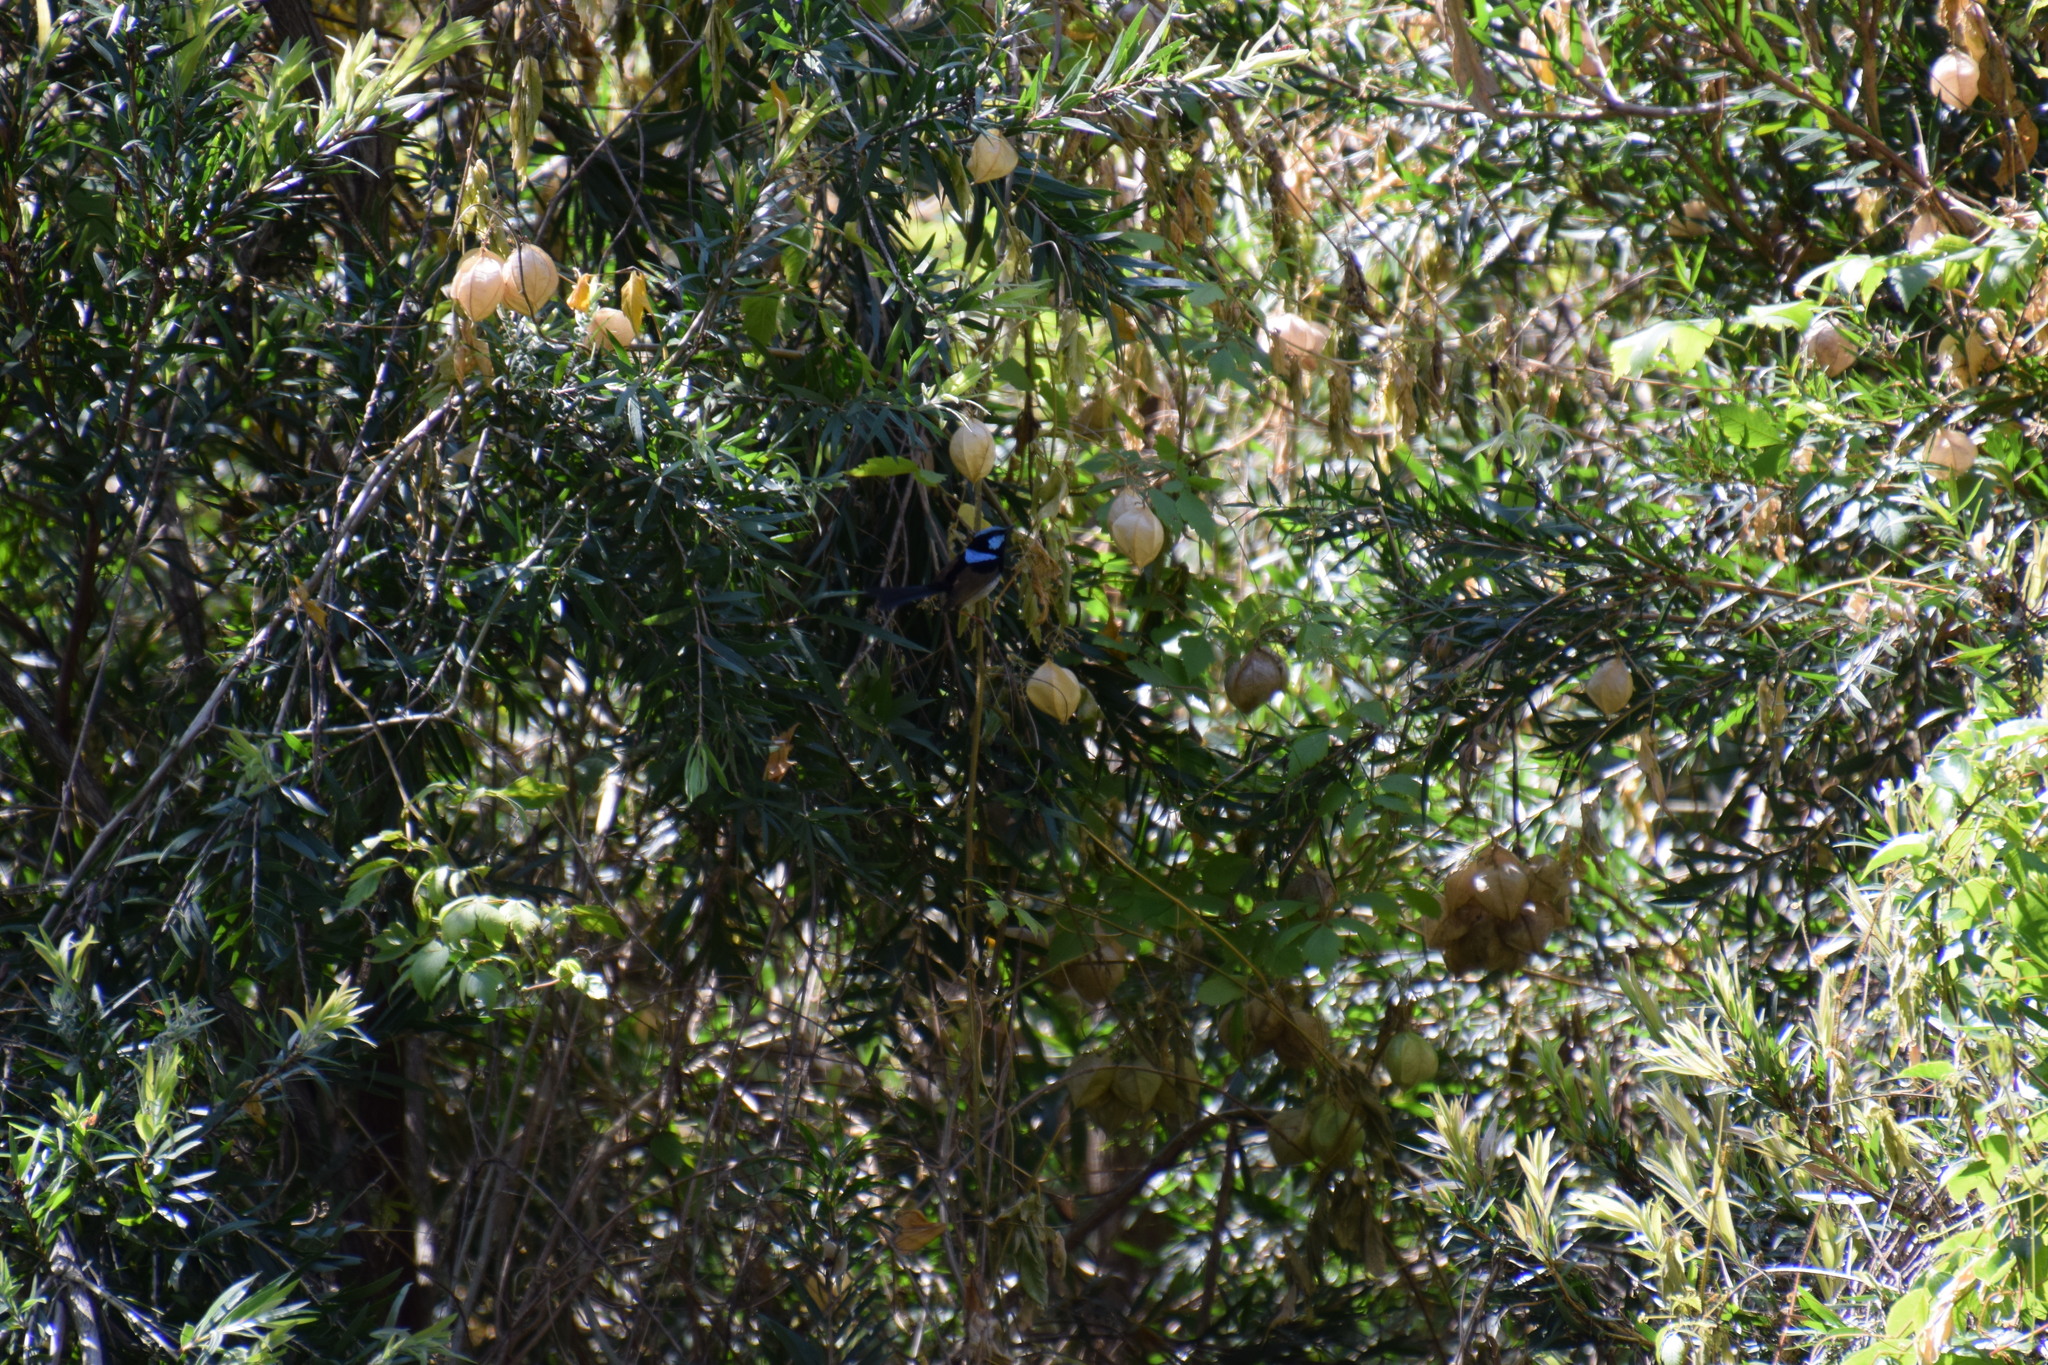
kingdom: Animalia
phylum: Chordata
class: Aves
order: Passeriformes
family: Maluridae
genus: Malurus
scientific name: Malurus cyaneus
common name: Superb fairywren
